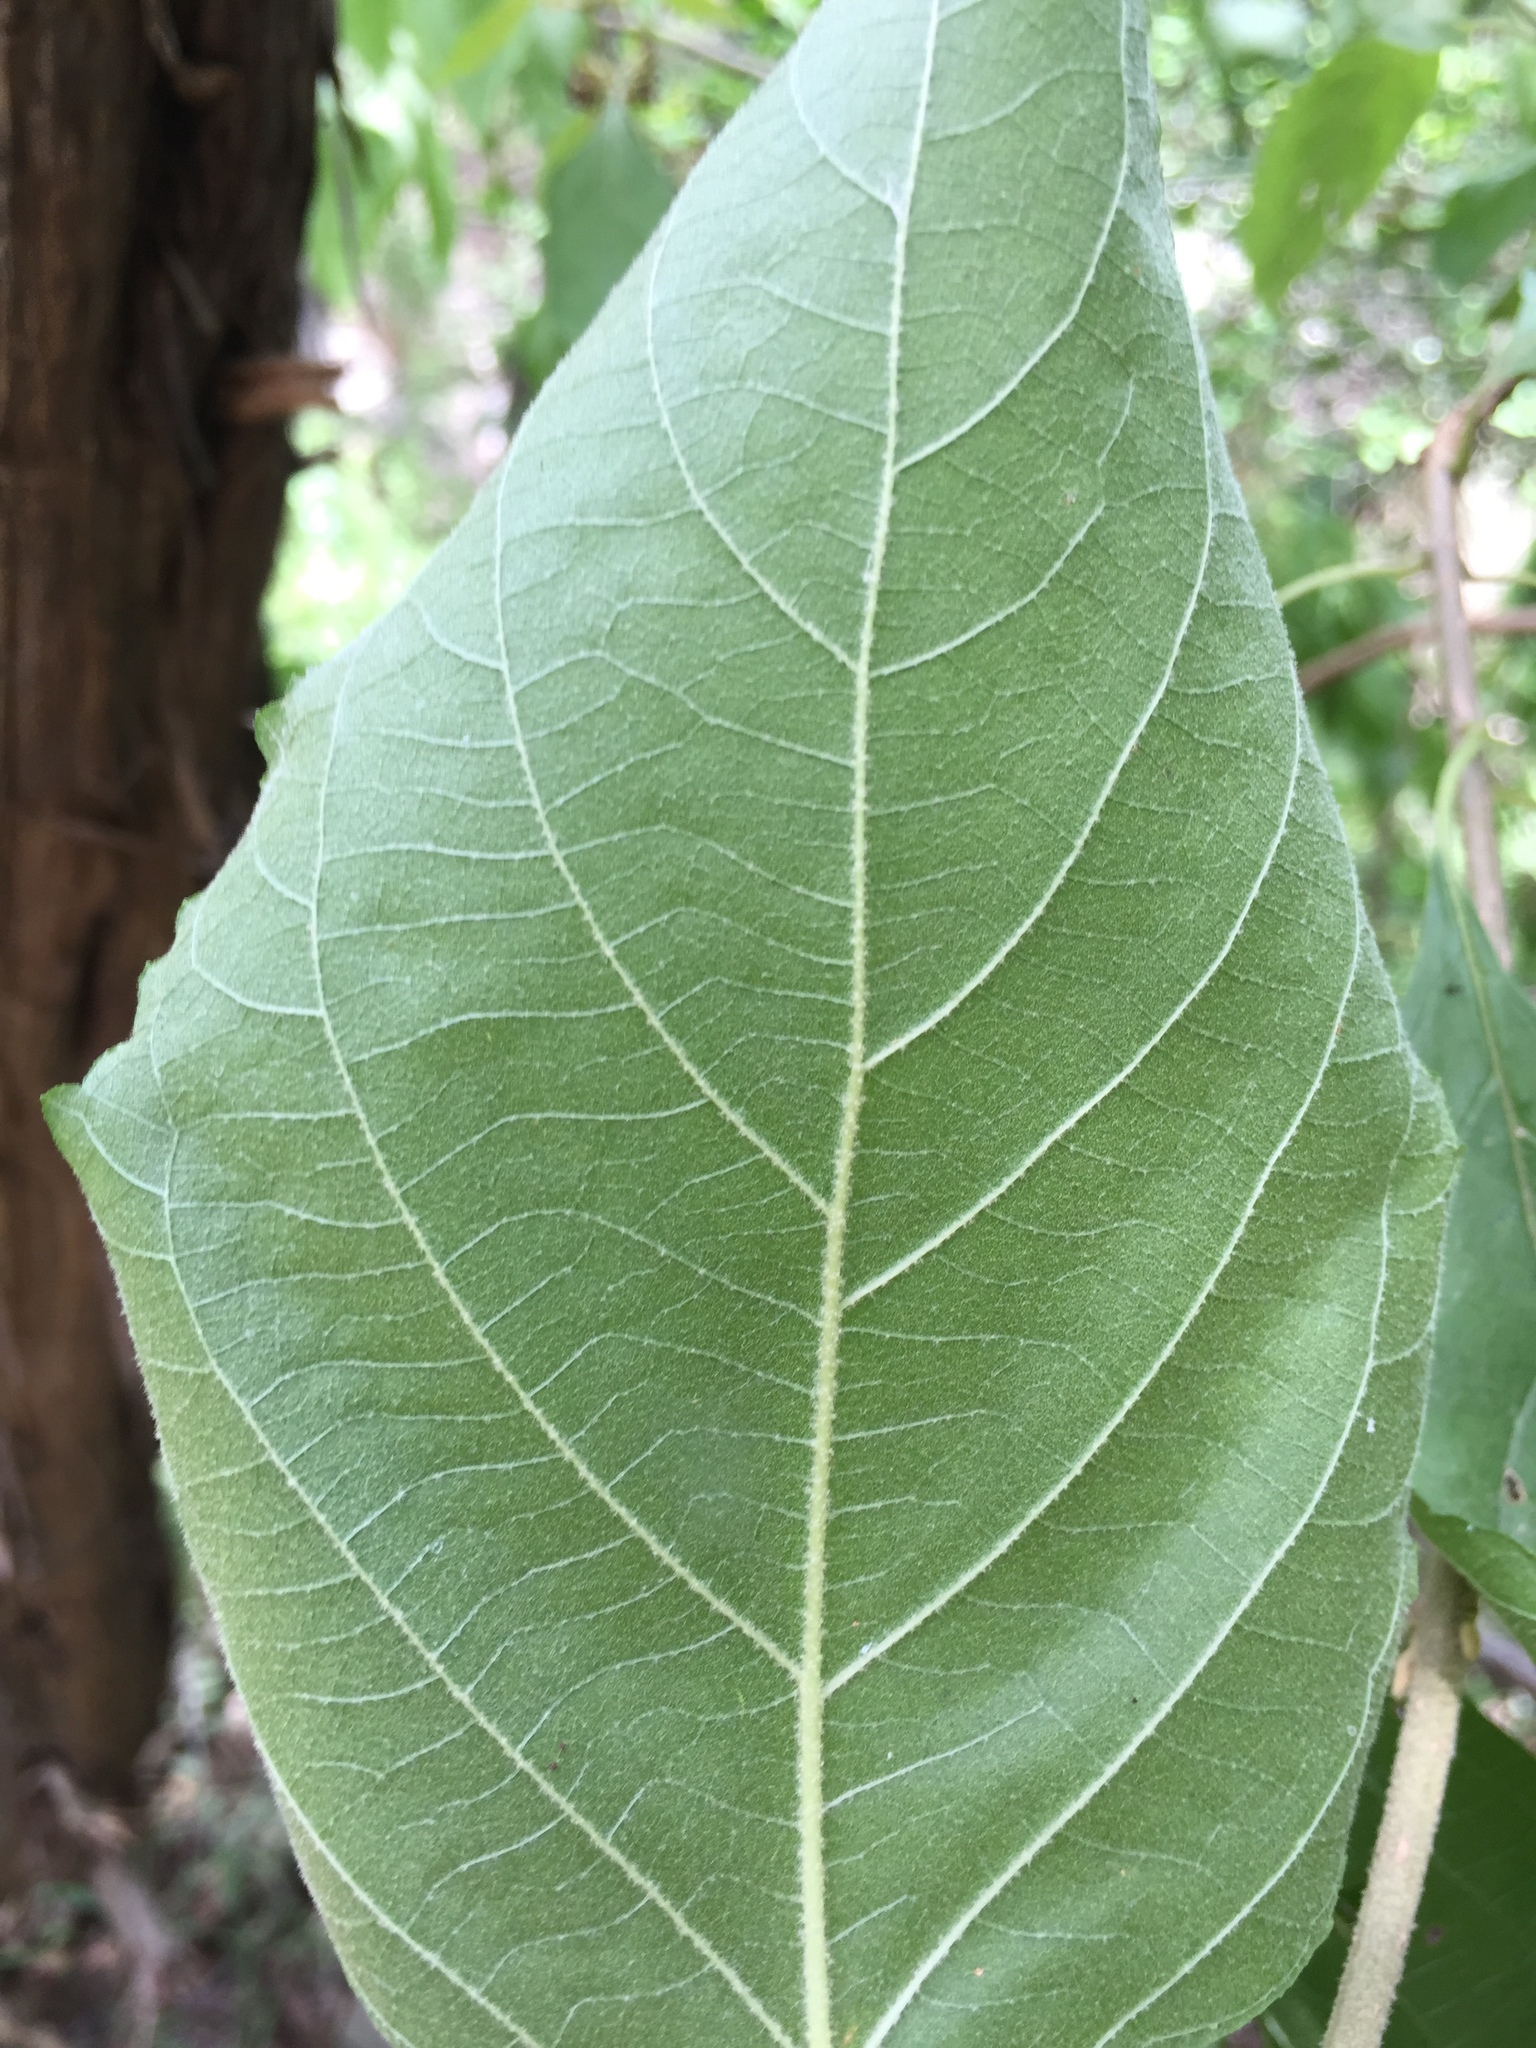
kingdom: Plantae
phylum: Tracheophyta
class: Magnoliopsida
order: Lamiales
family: Lamiaceae
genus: Callicarpa
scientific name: Callicarpa americana
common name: American beautyberry
